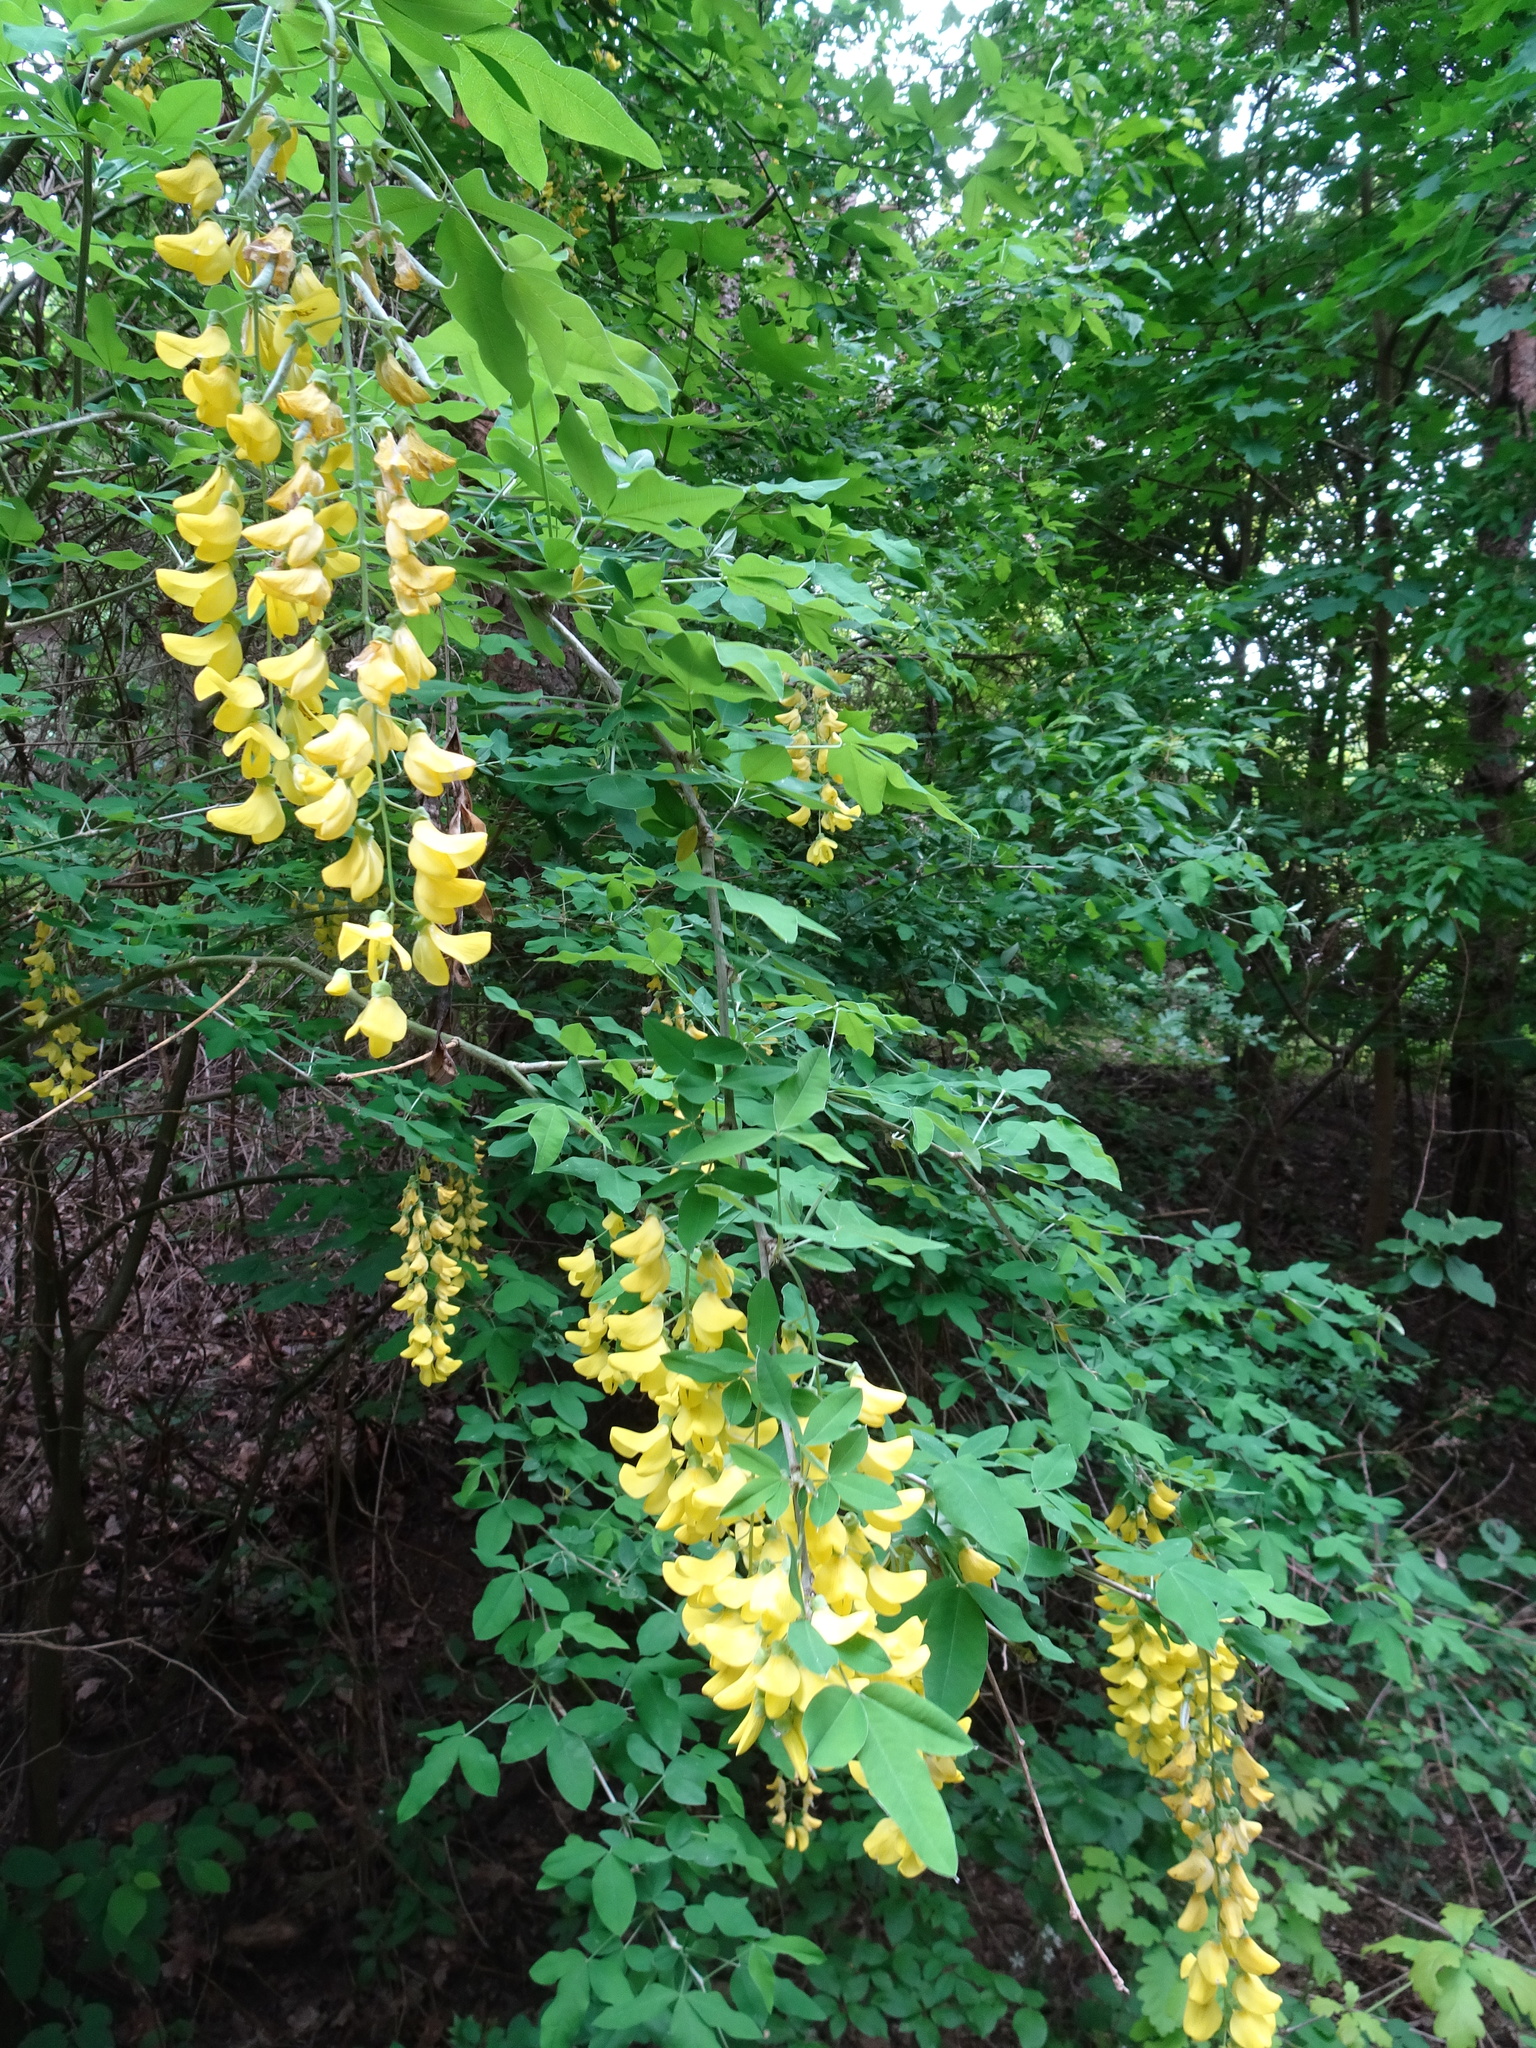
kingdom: Plantae
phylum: Tracheophyta
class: Magnoliopsida
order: Fabales
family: Fabaceae
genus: Laburnum
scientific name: Laburnum anagyroides
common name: Laburnum
